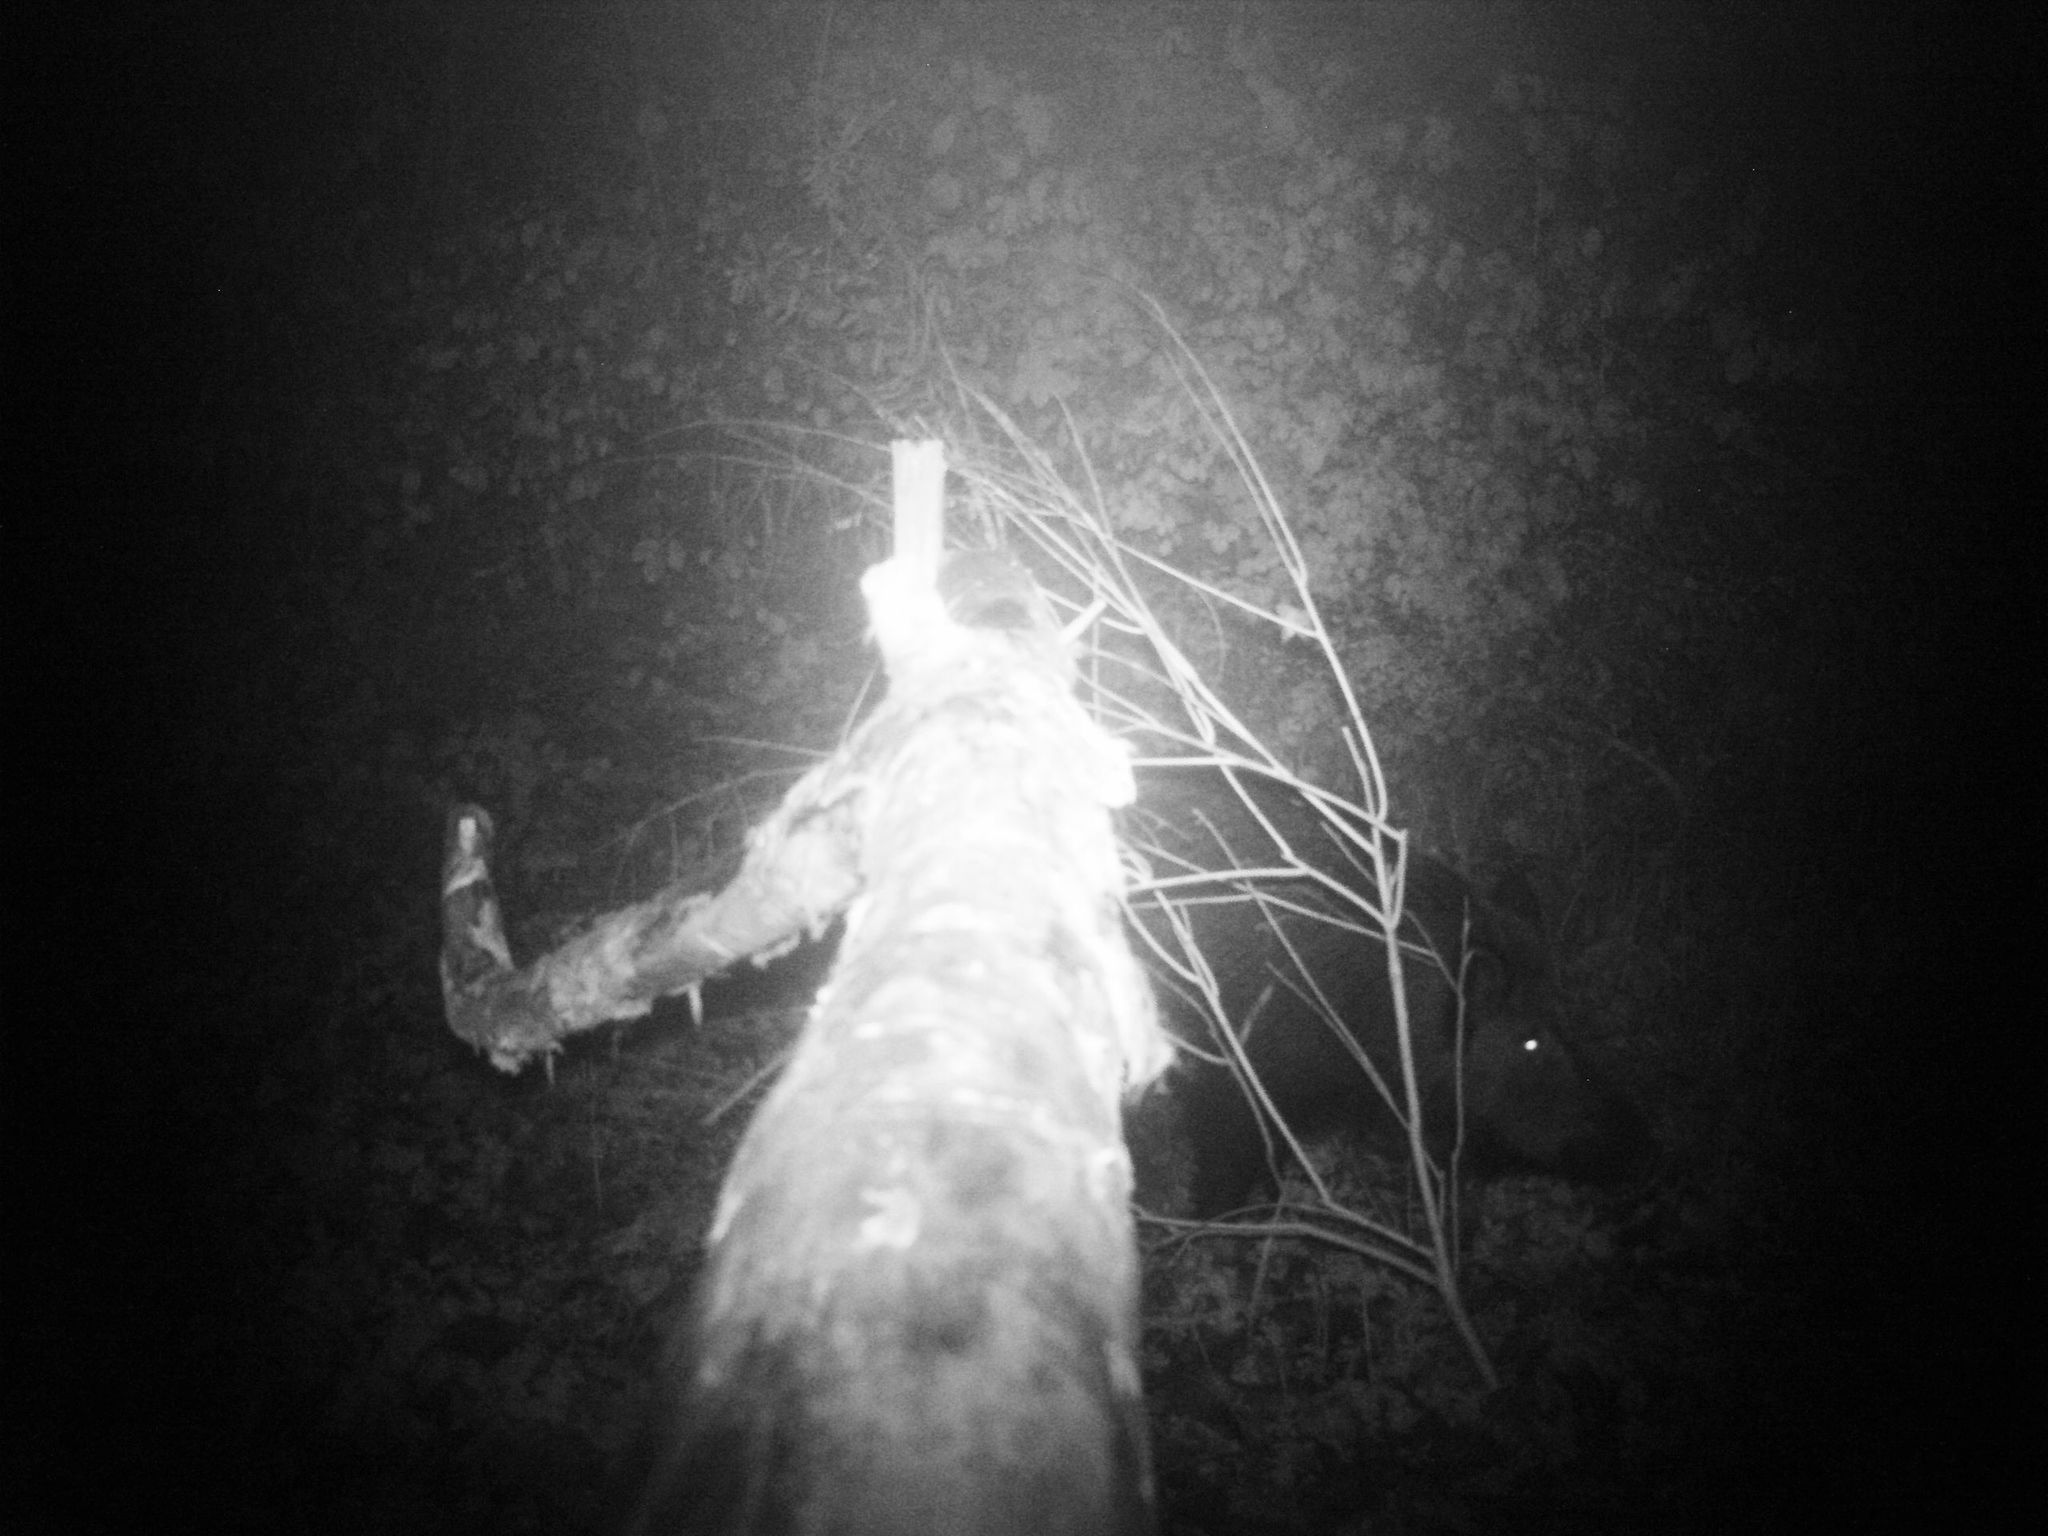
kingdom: Animalia
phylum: Chordata
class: Mammalia
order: Artiodactyla
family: Suidae
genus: Sus
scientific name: Sus scrofa
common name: Wild boar
